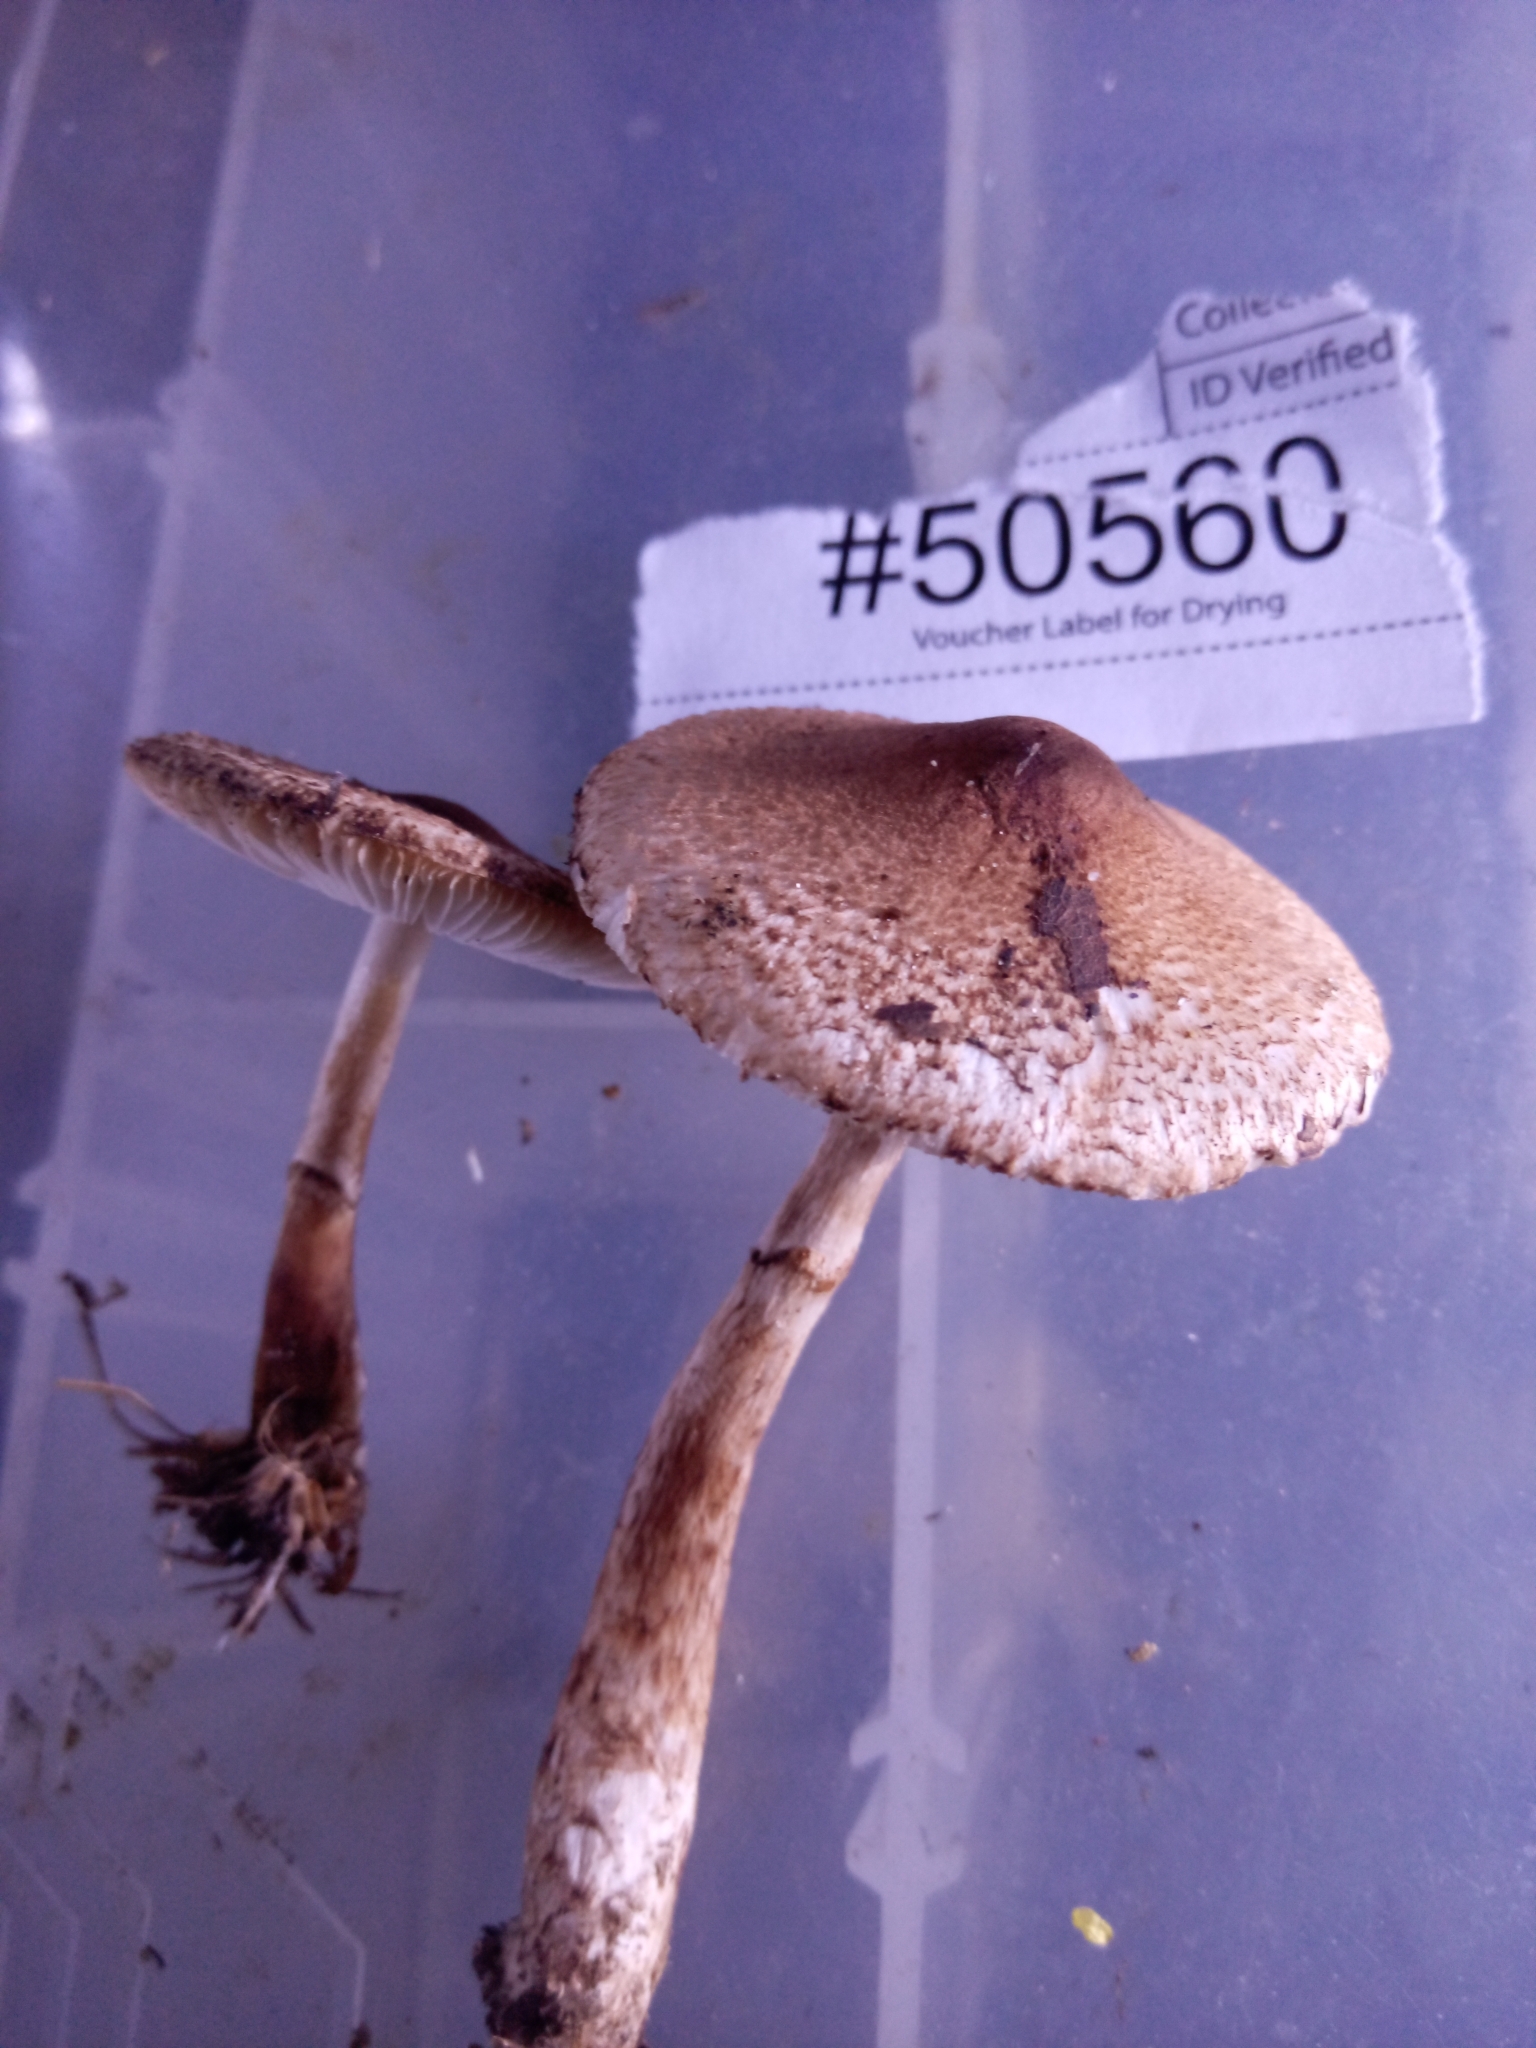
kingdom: Fungi
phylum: Basidiomycota
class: Agaricomycetes
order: Agaricales
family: Agaricaceae
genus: Lepiota
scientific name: Lepiota flammeotincta
